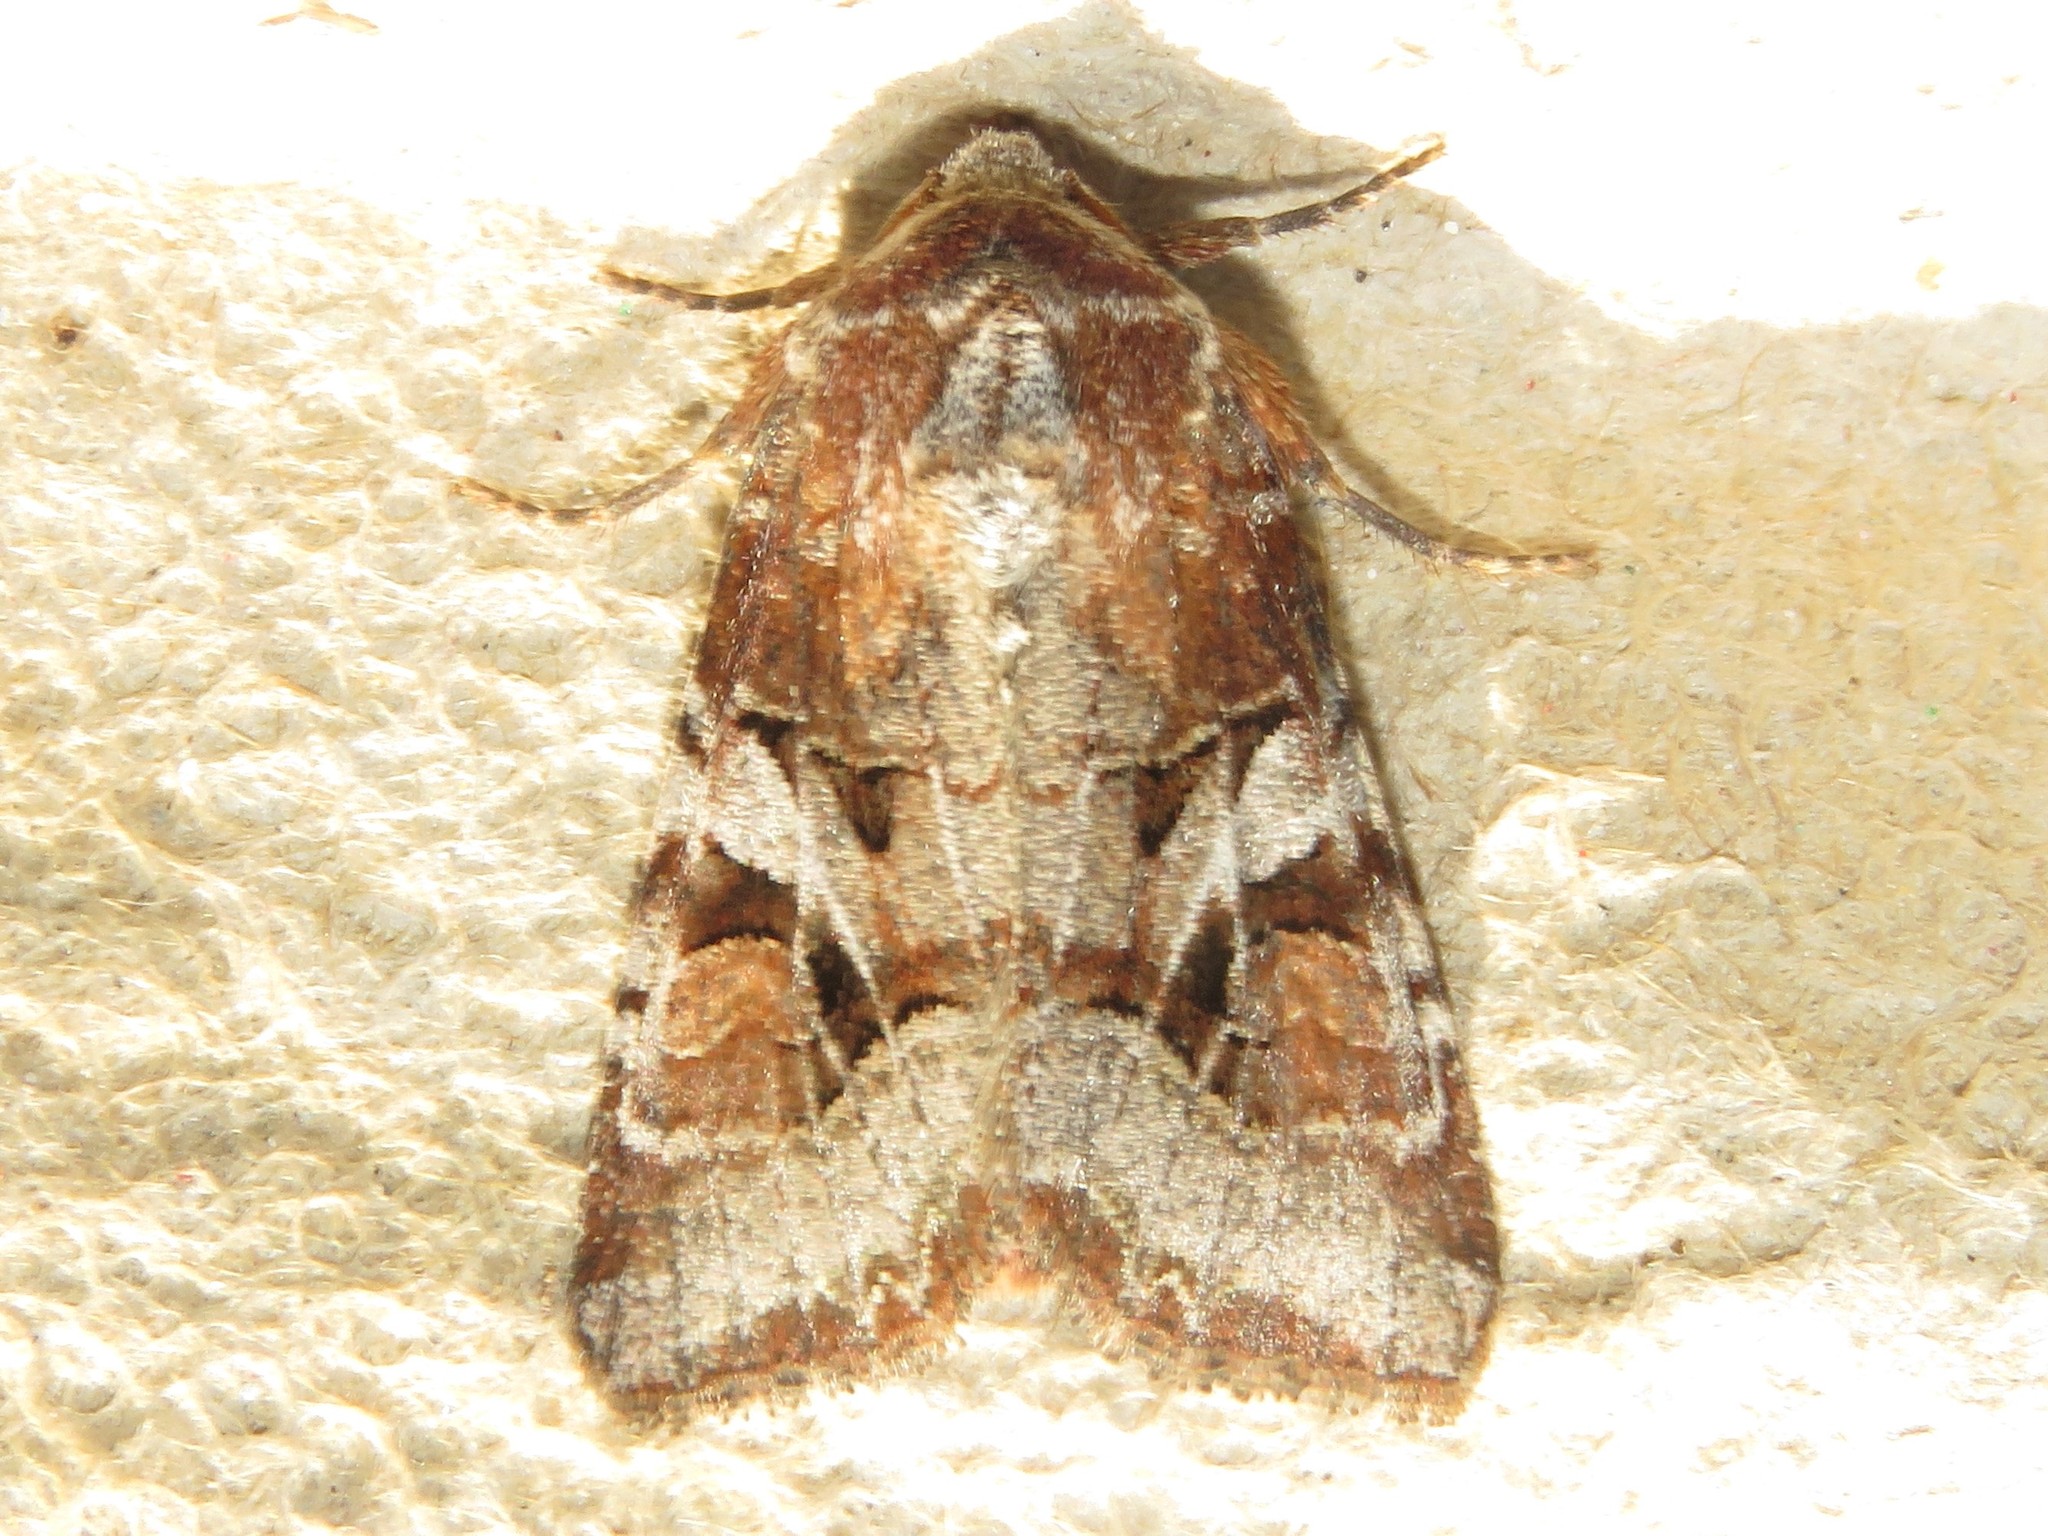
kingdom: Animalia
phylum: Arthropoda
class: Insecta
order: Lepidoptera
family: Noctuidae
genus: Trichordestra
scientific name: Trichordestra tacoma
